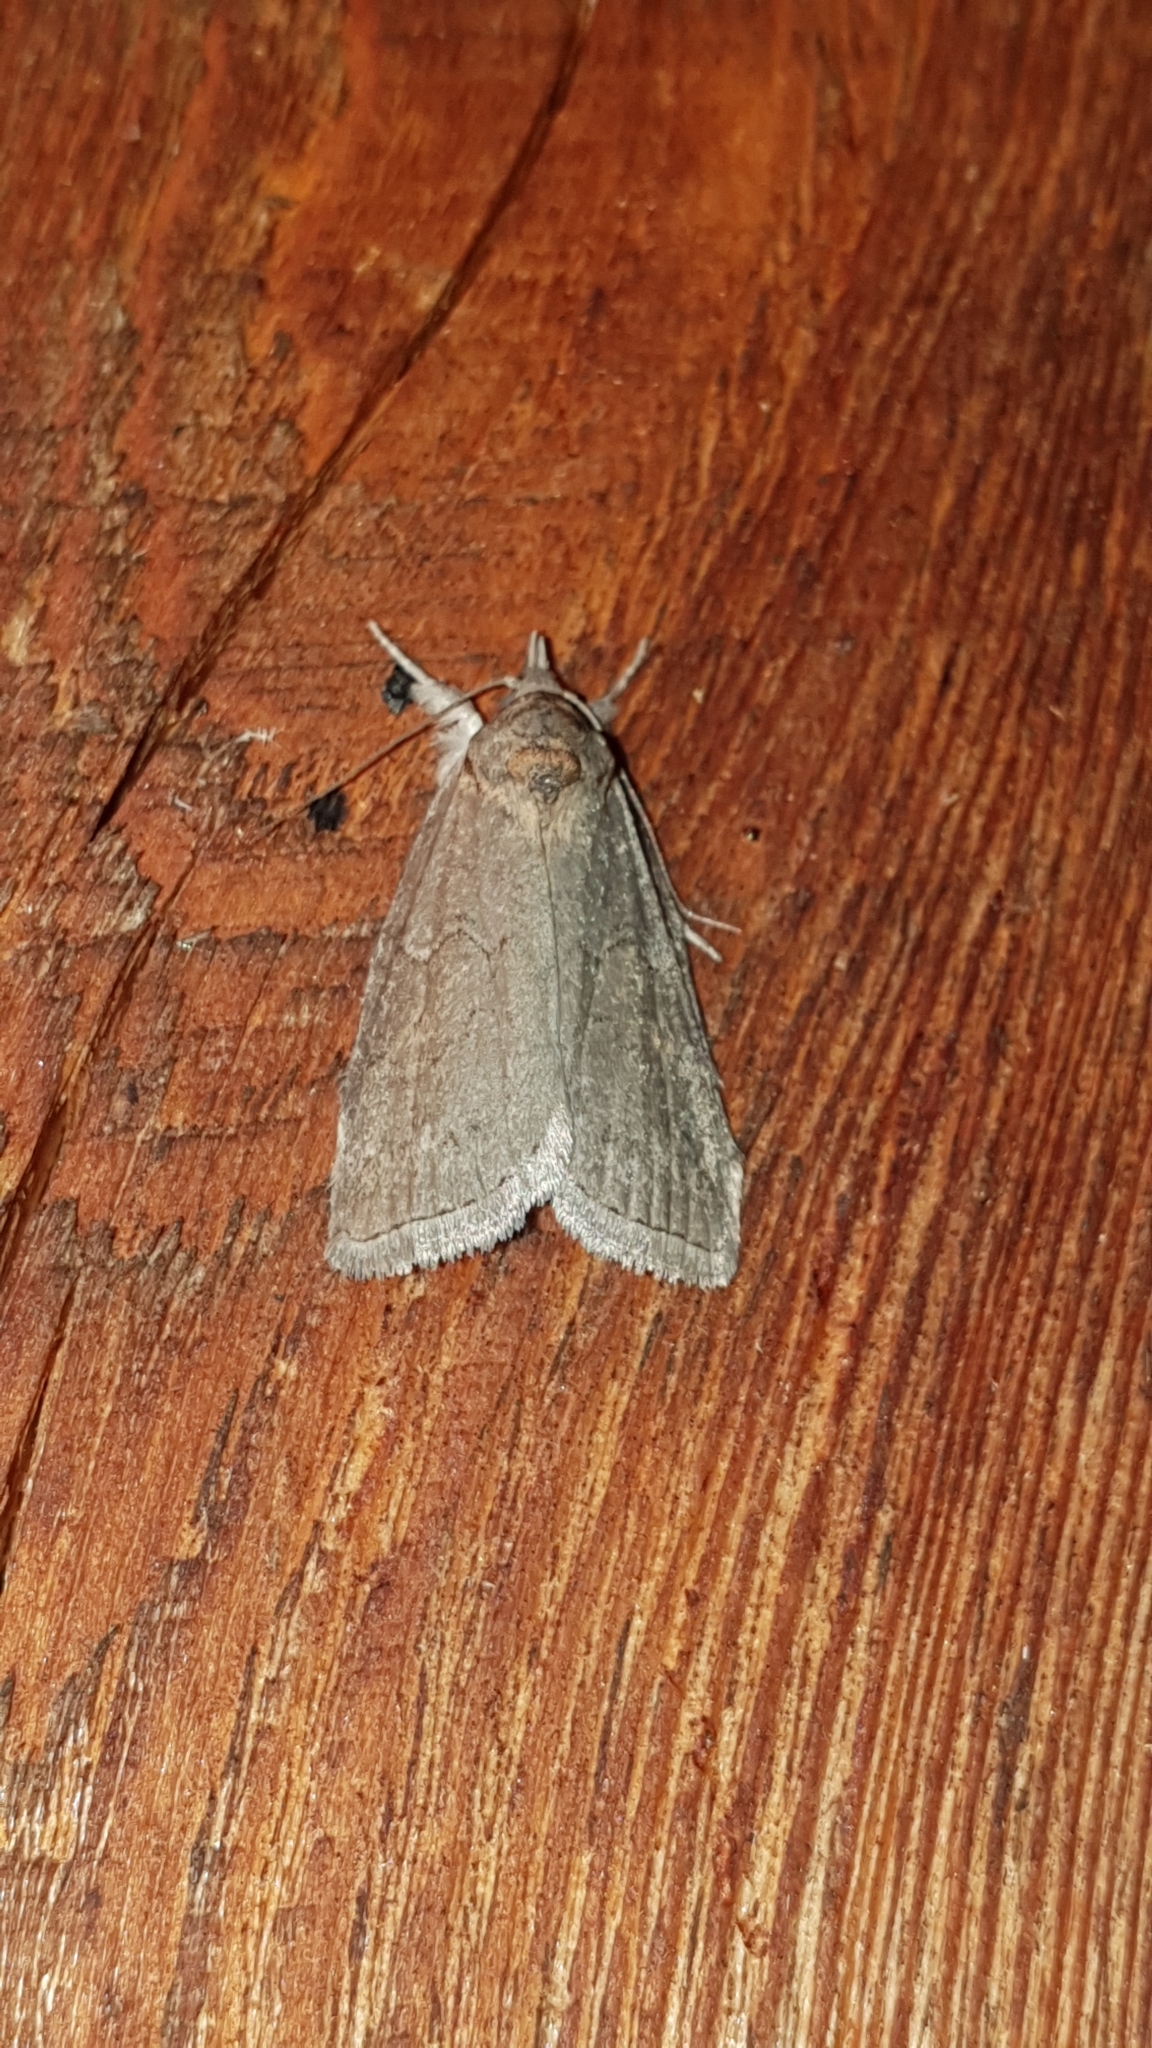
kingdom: Animalia
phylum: Arthropoda
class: Insecta
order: Lepidoptera
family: Nolidae
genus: Nycteola
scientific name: Nycteola asiatica
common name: Eastern nycteoline
